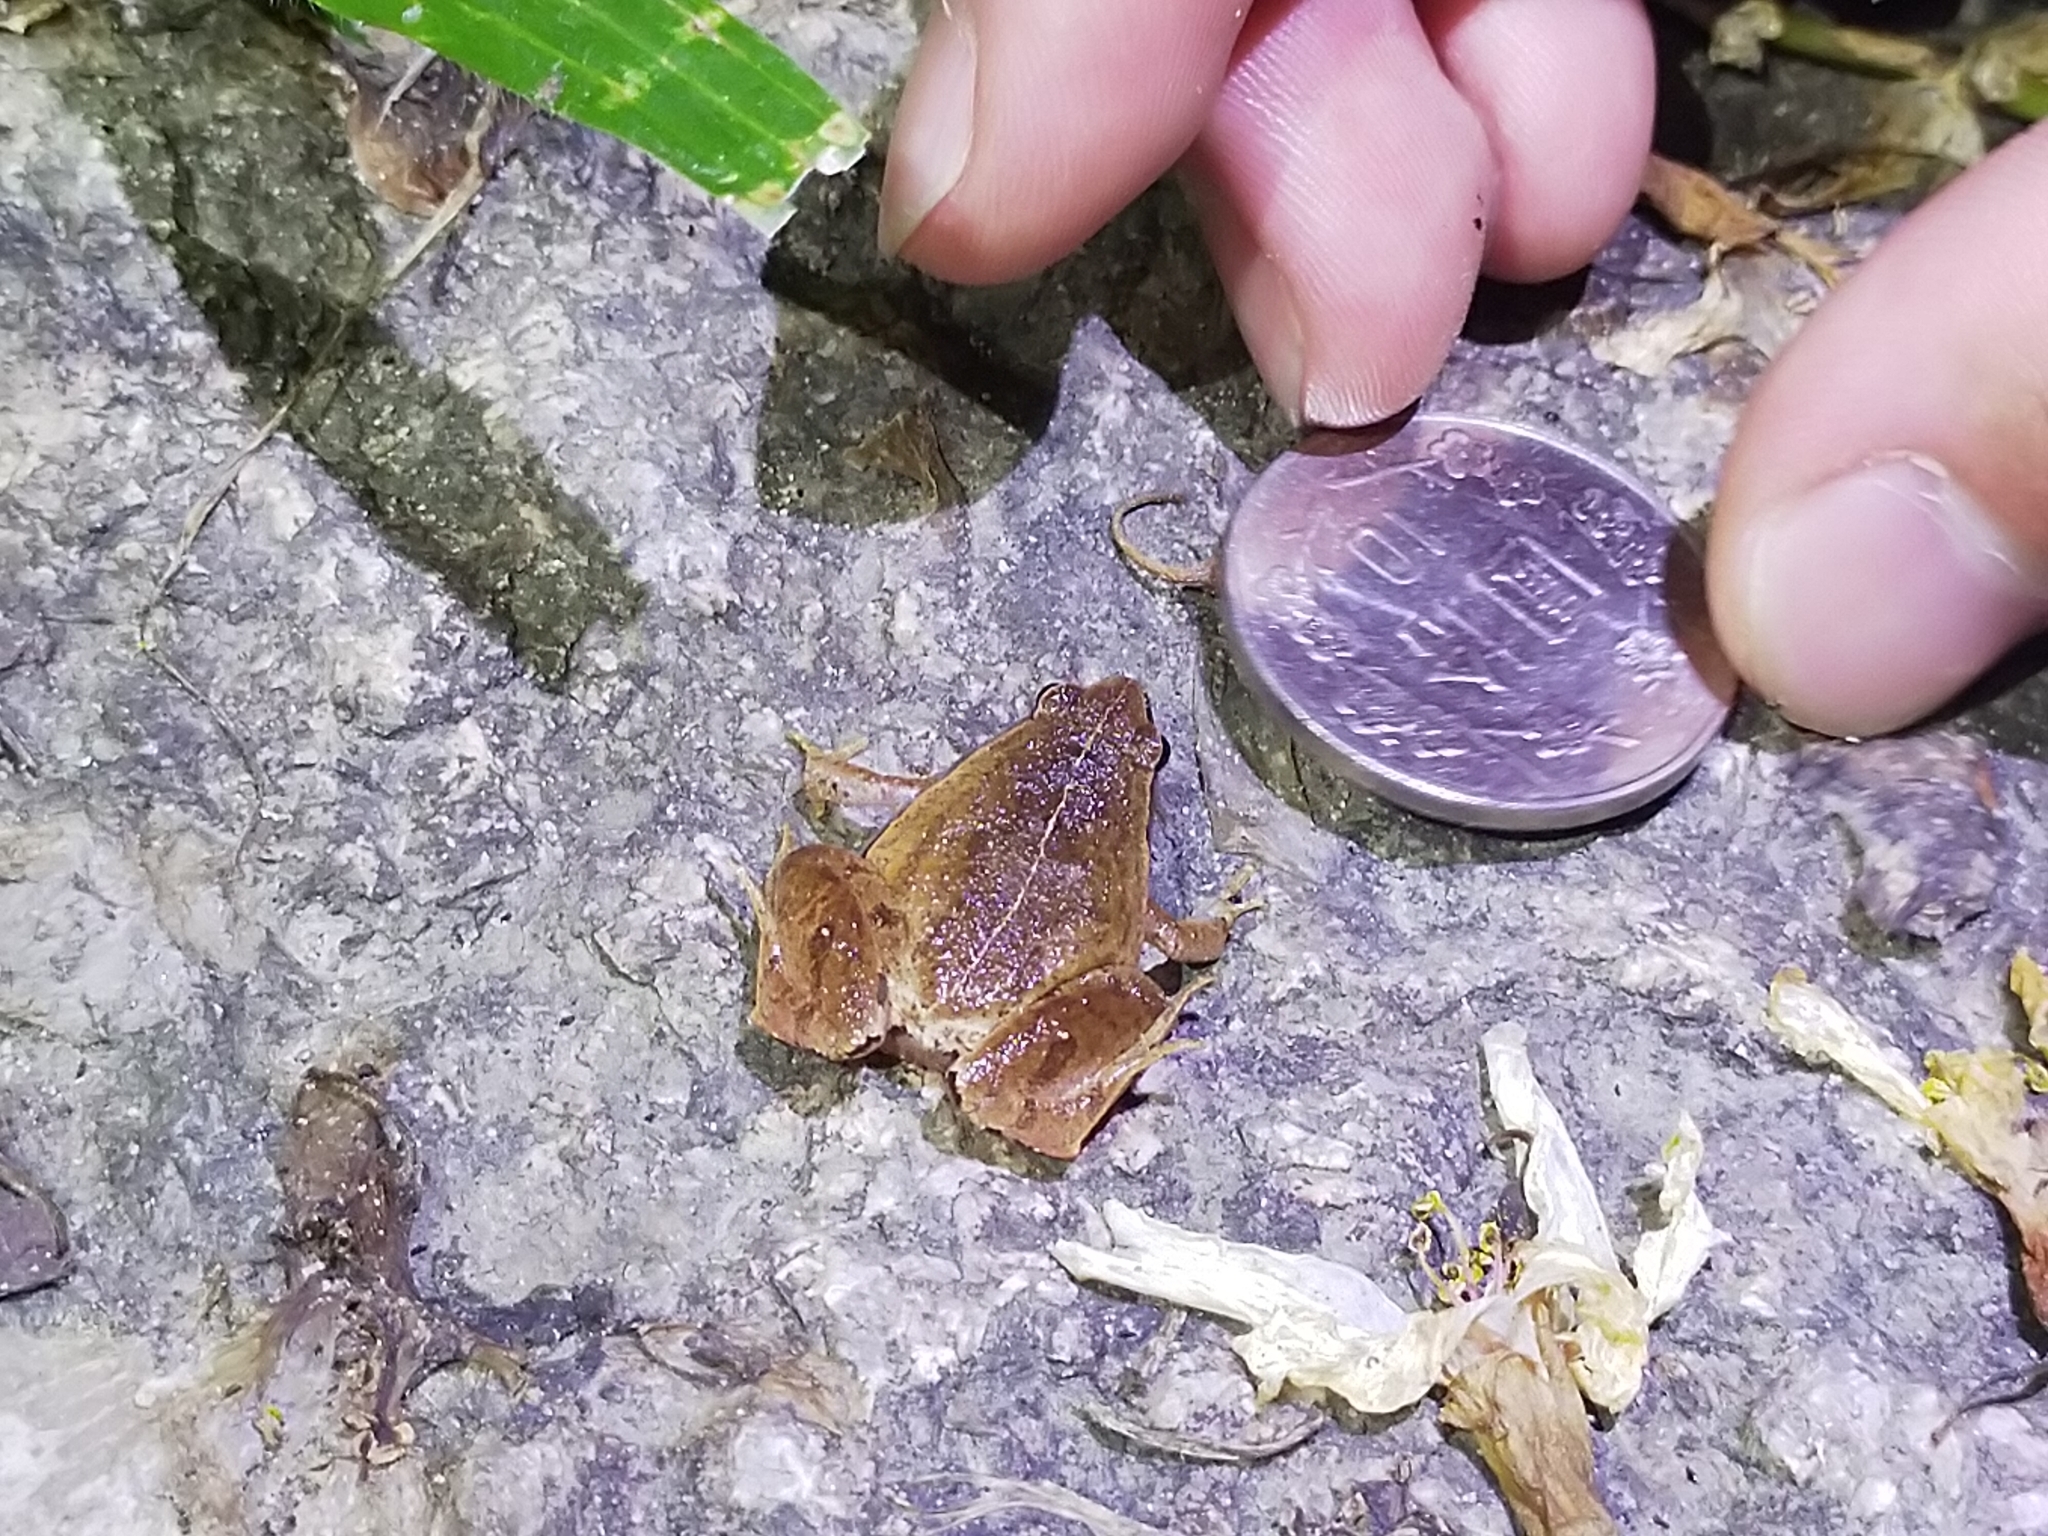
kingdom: Animalia
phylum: Chordata
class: Amphibia
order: Anura
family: Microhylidae
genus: Microhyla
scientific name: Microhyla heymonsi
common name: Taiwan rice frog,dark sided chorus frog
